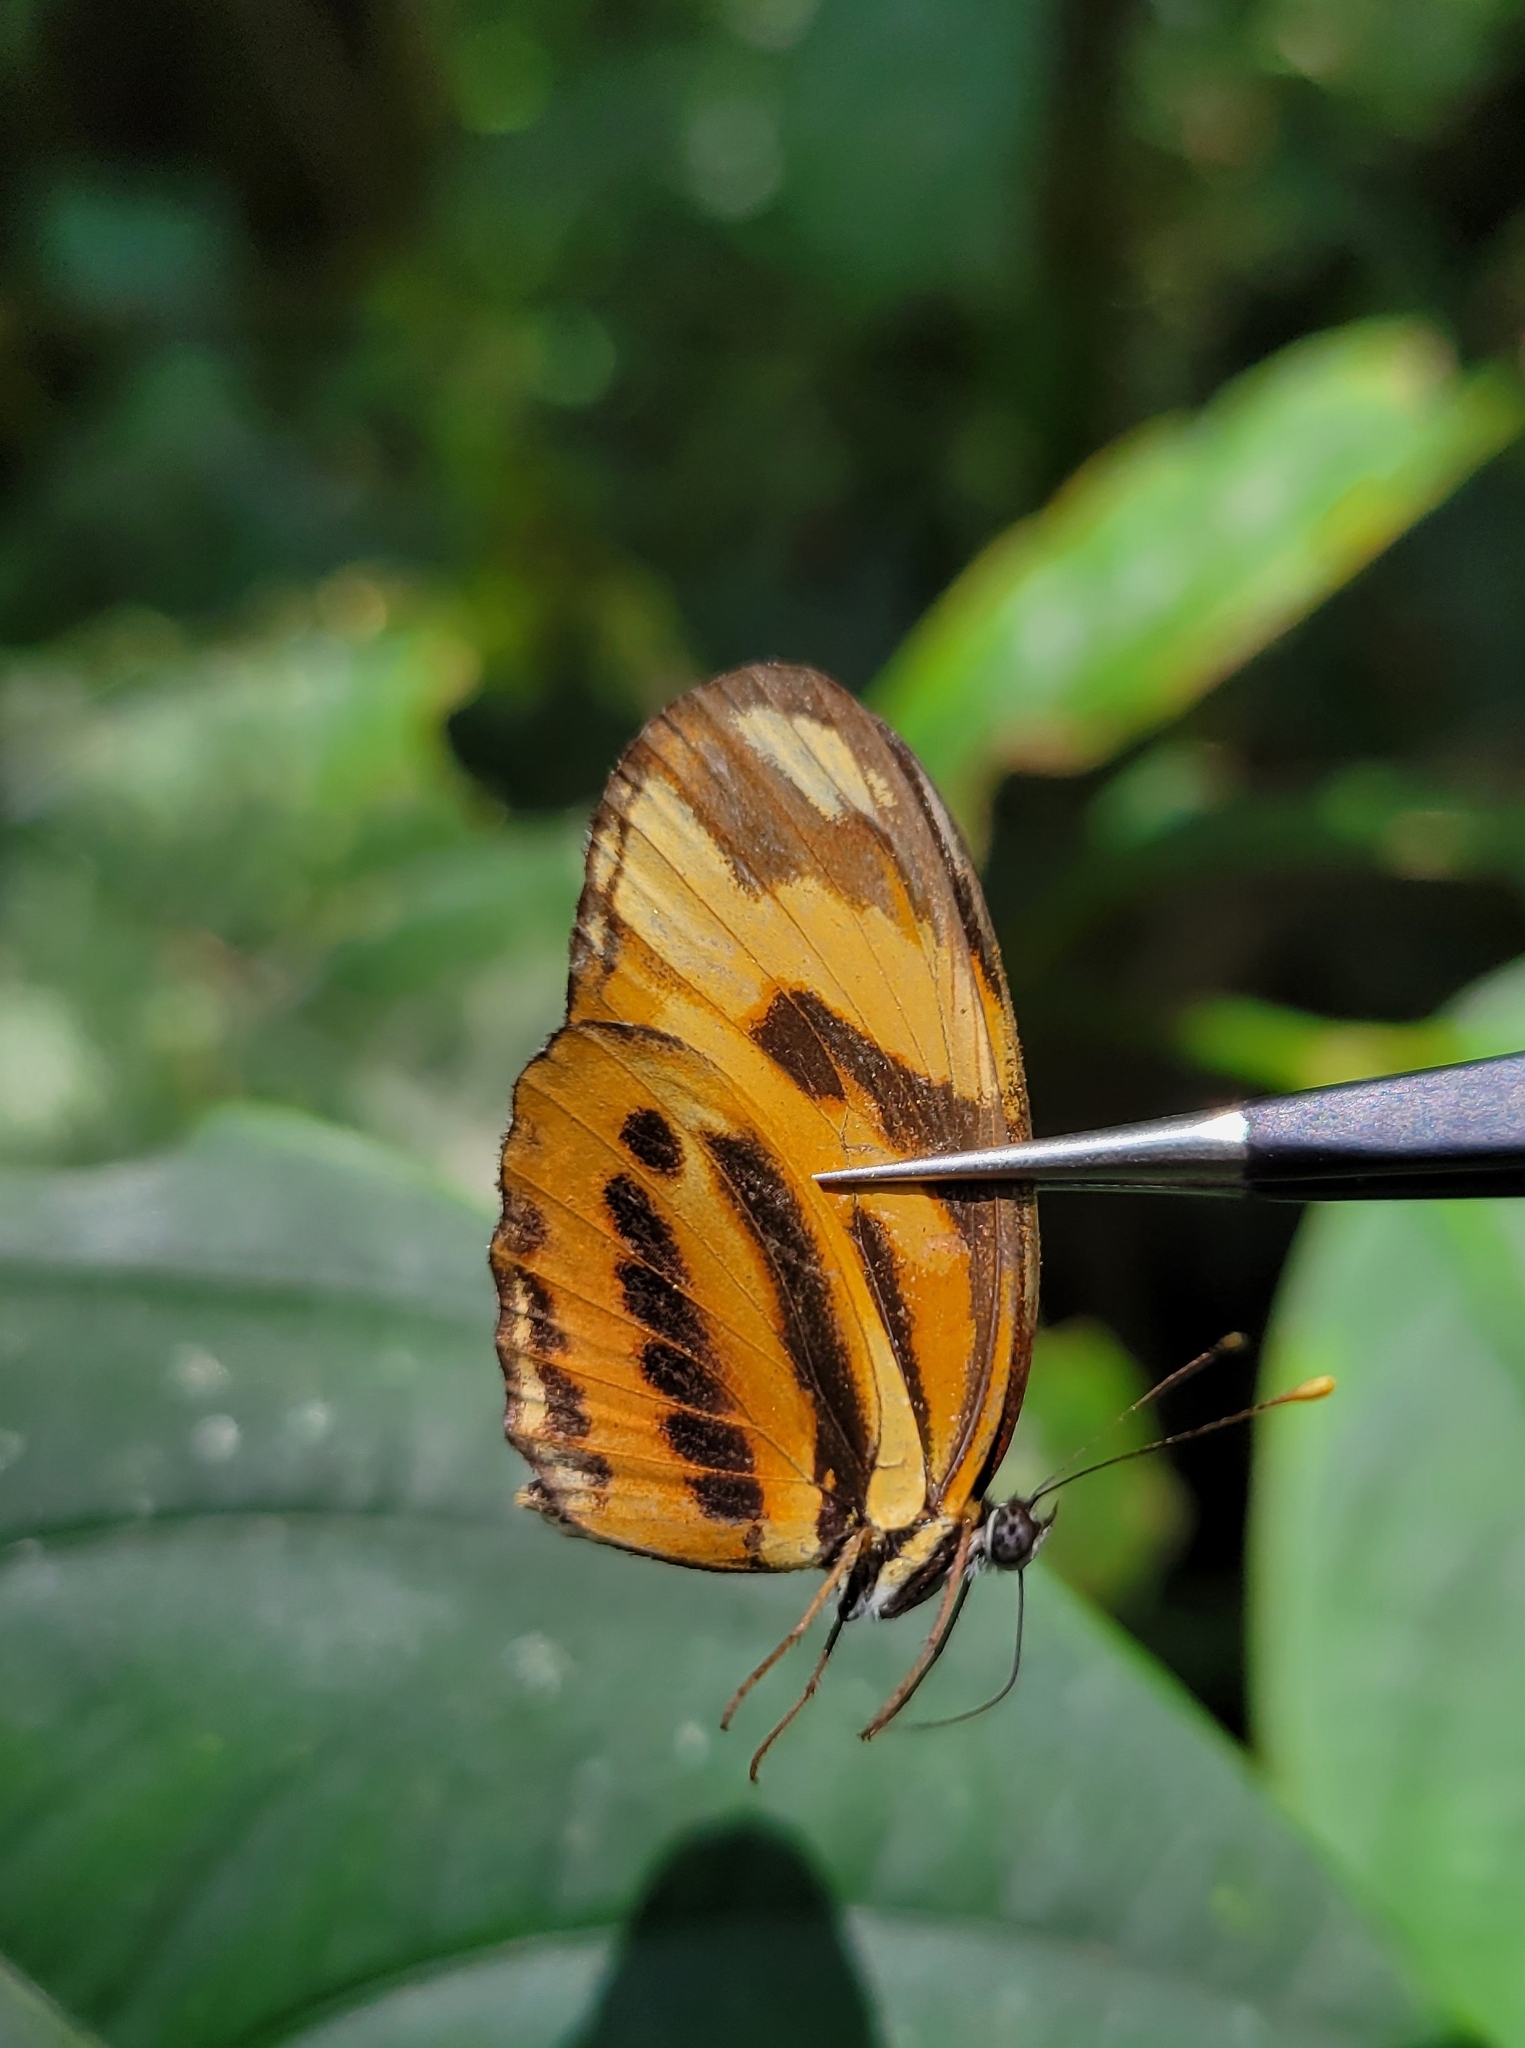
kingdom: Animalia
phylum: Arthropoda
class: Insecta
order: Lepidoptera
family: Nymphalidae
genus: Eresia
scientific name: Eresia eunice
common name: Tiger crescent
